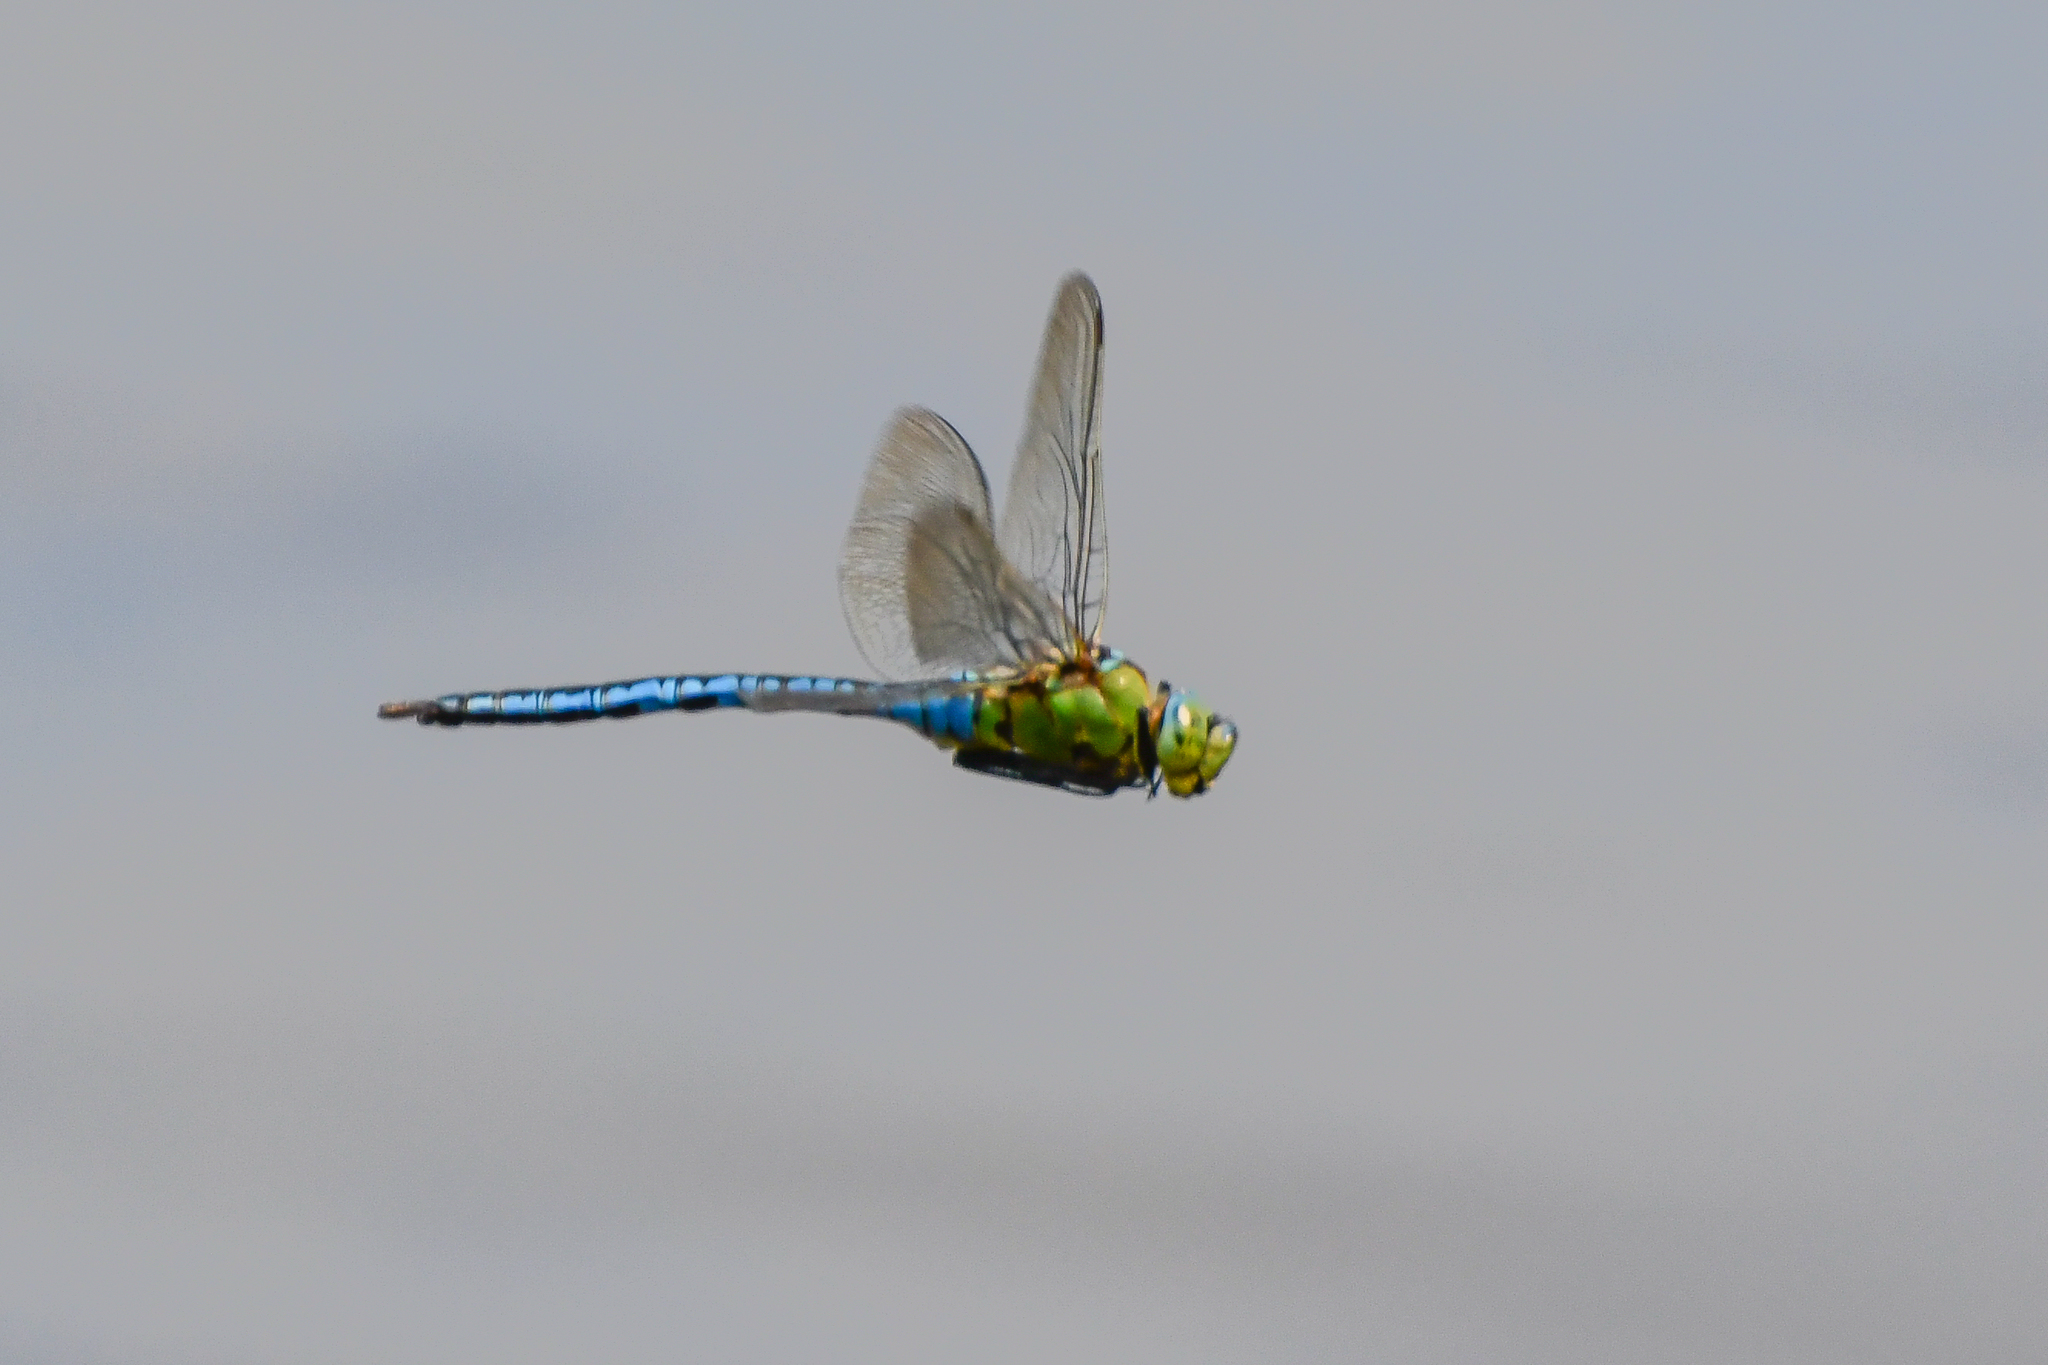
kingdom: Animalia
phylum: Arthropoda
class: Insecta
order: Odonata
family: Aeshnidae
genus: Anax
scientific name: Anax imperator
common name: Emperor dragonfly
